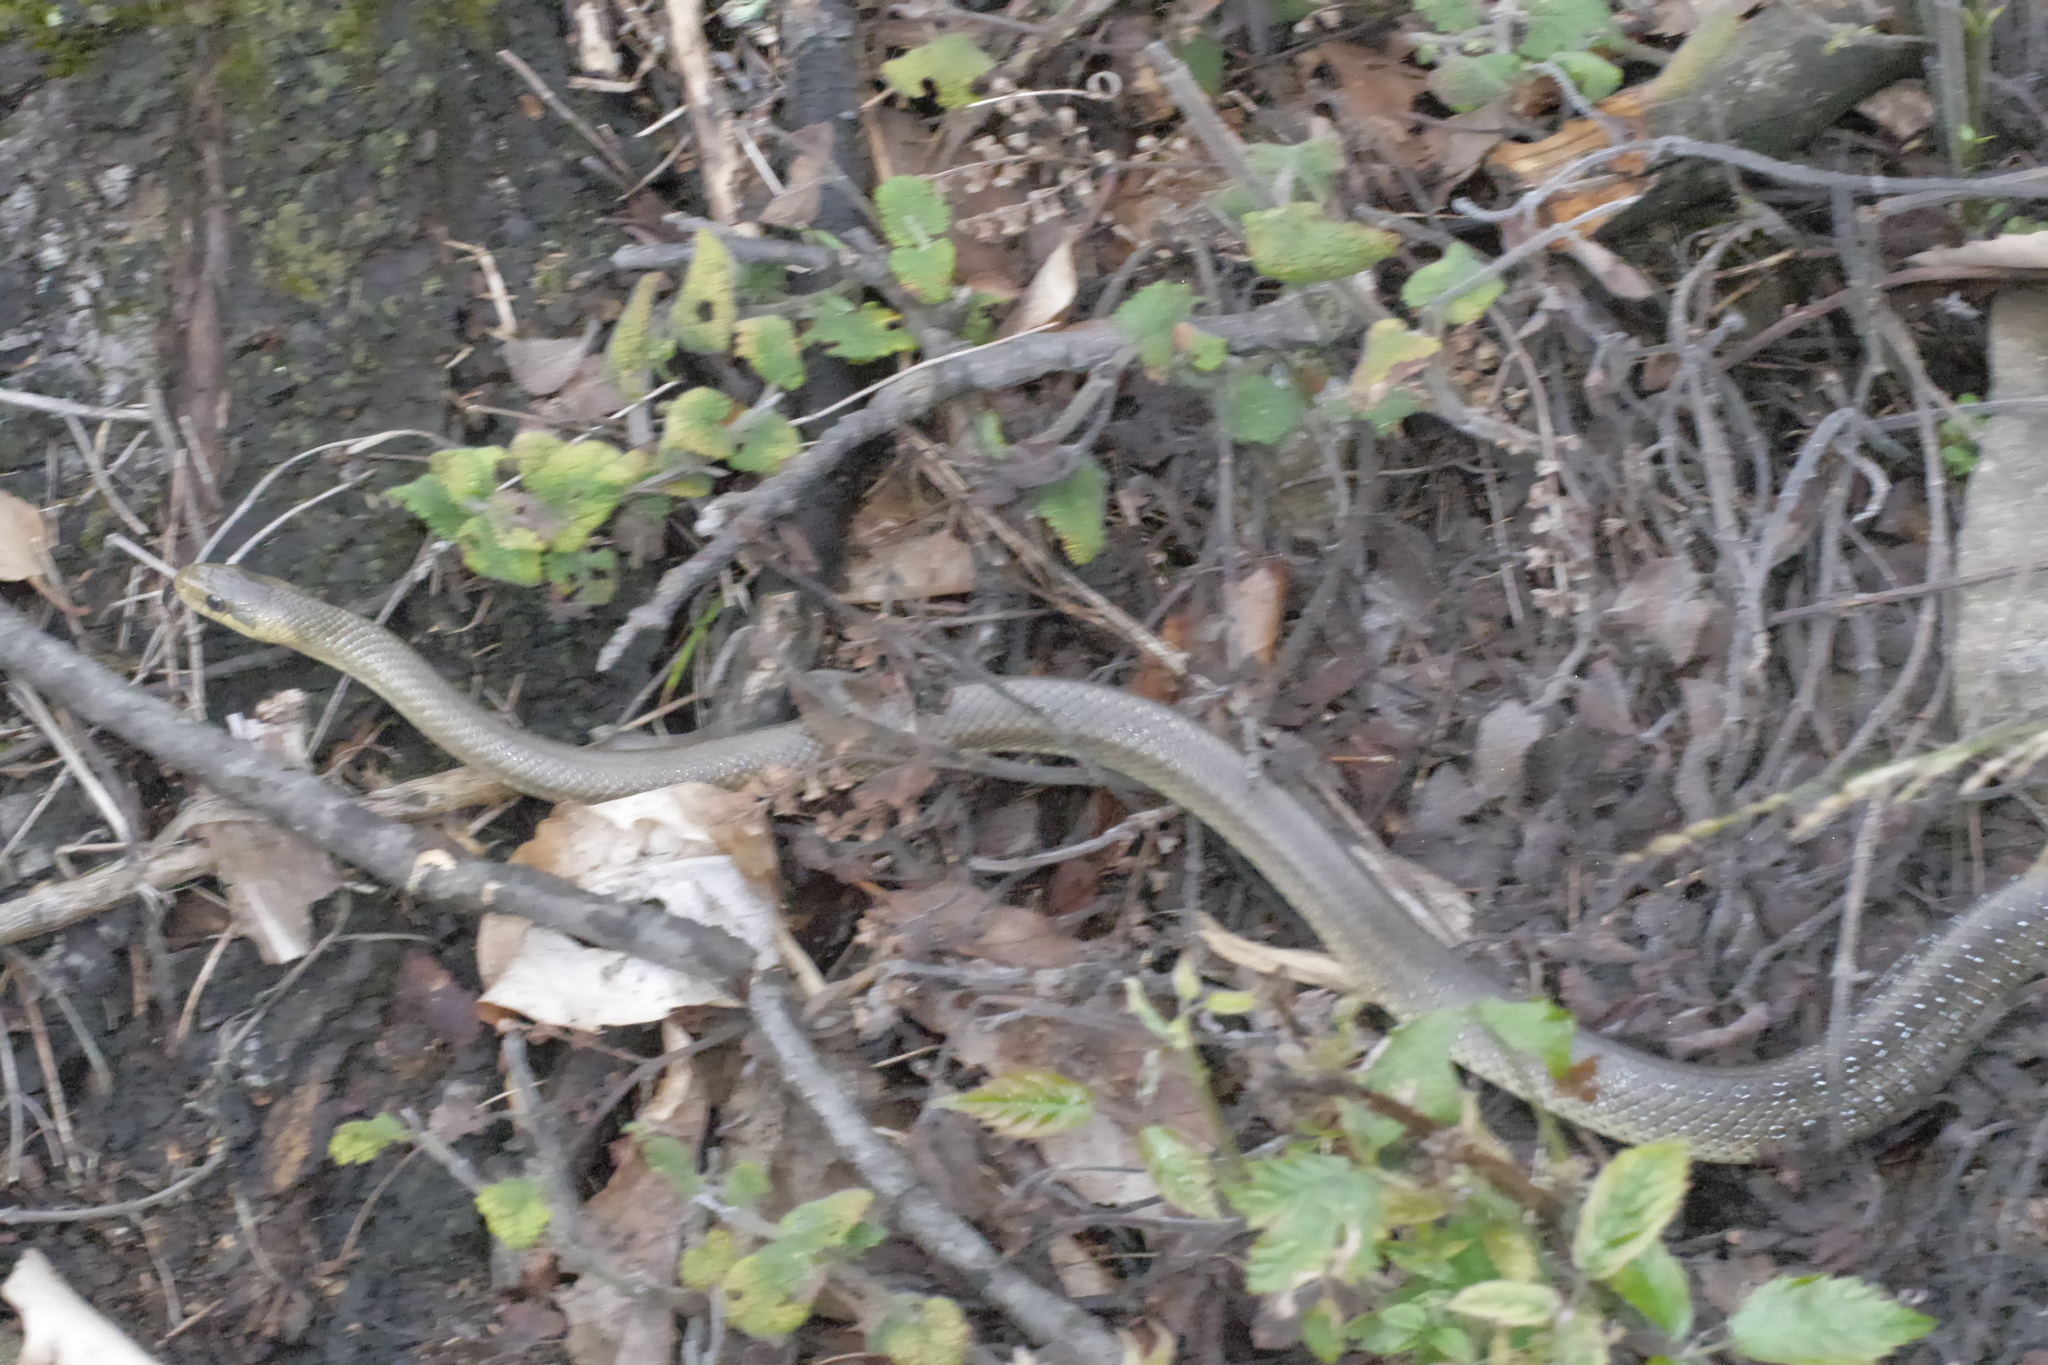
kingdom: Animalia
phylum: Chordata
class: Squamata
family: Colubridae
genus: Zamenis
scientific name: Zamenis longissimus
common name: Aesculapean snake
